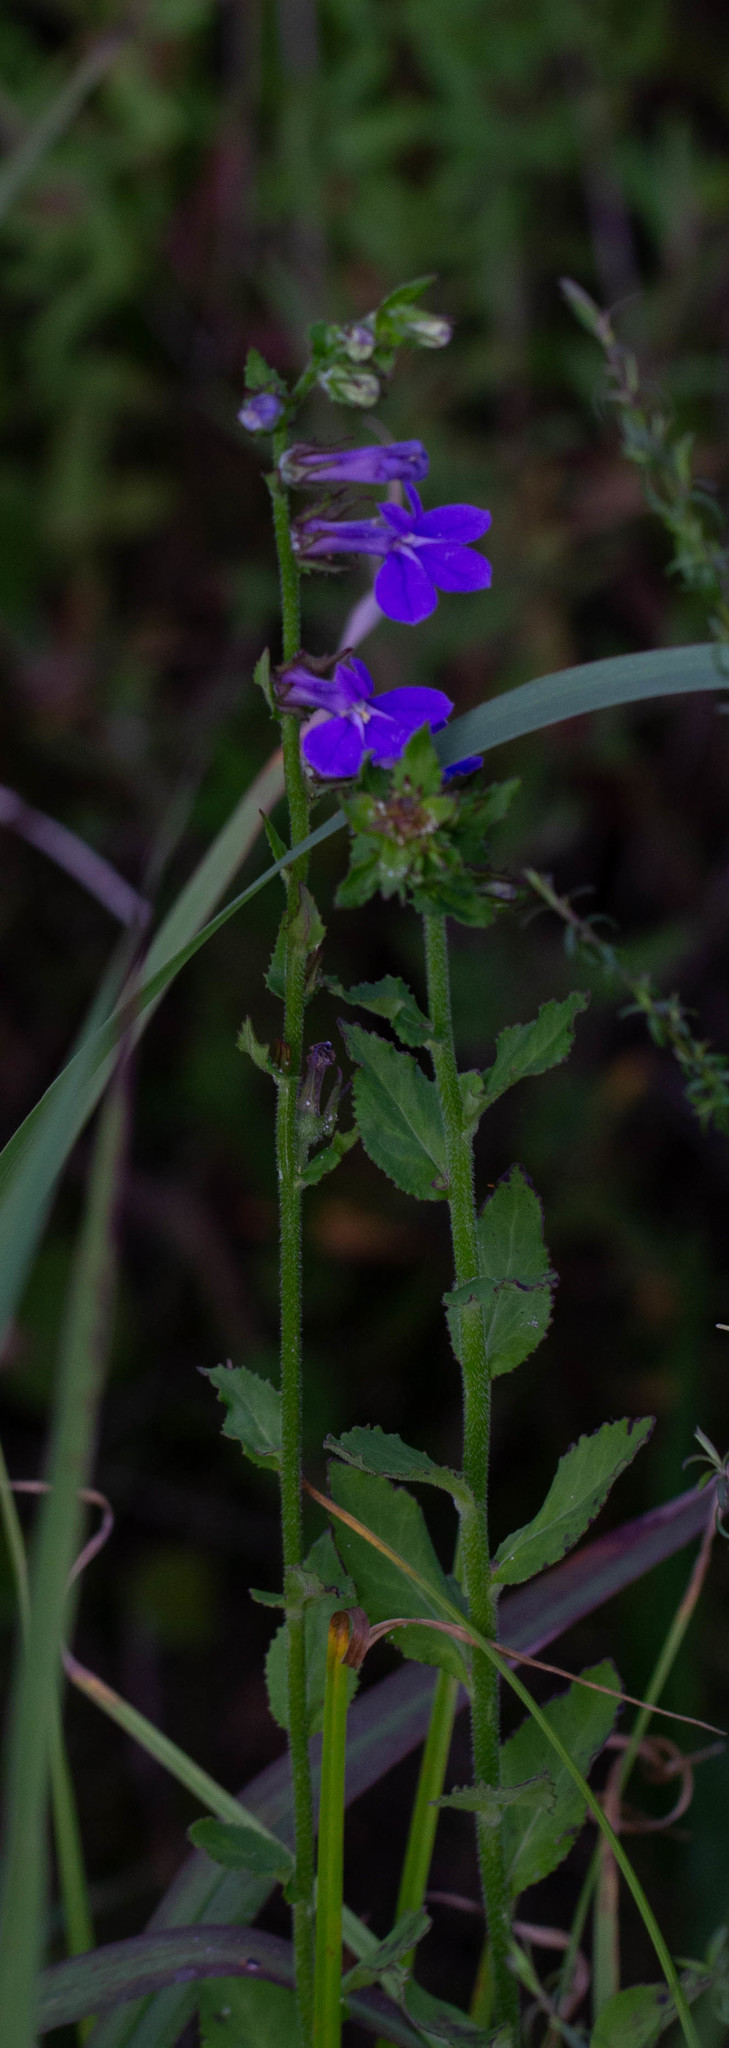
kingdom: Plantae
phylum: Tracheophyta
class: Magnoliopsida
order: Asterales
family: Campanulaceae
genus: Lobelia
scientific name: Lobelia puberula
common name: Purple dewdrop
